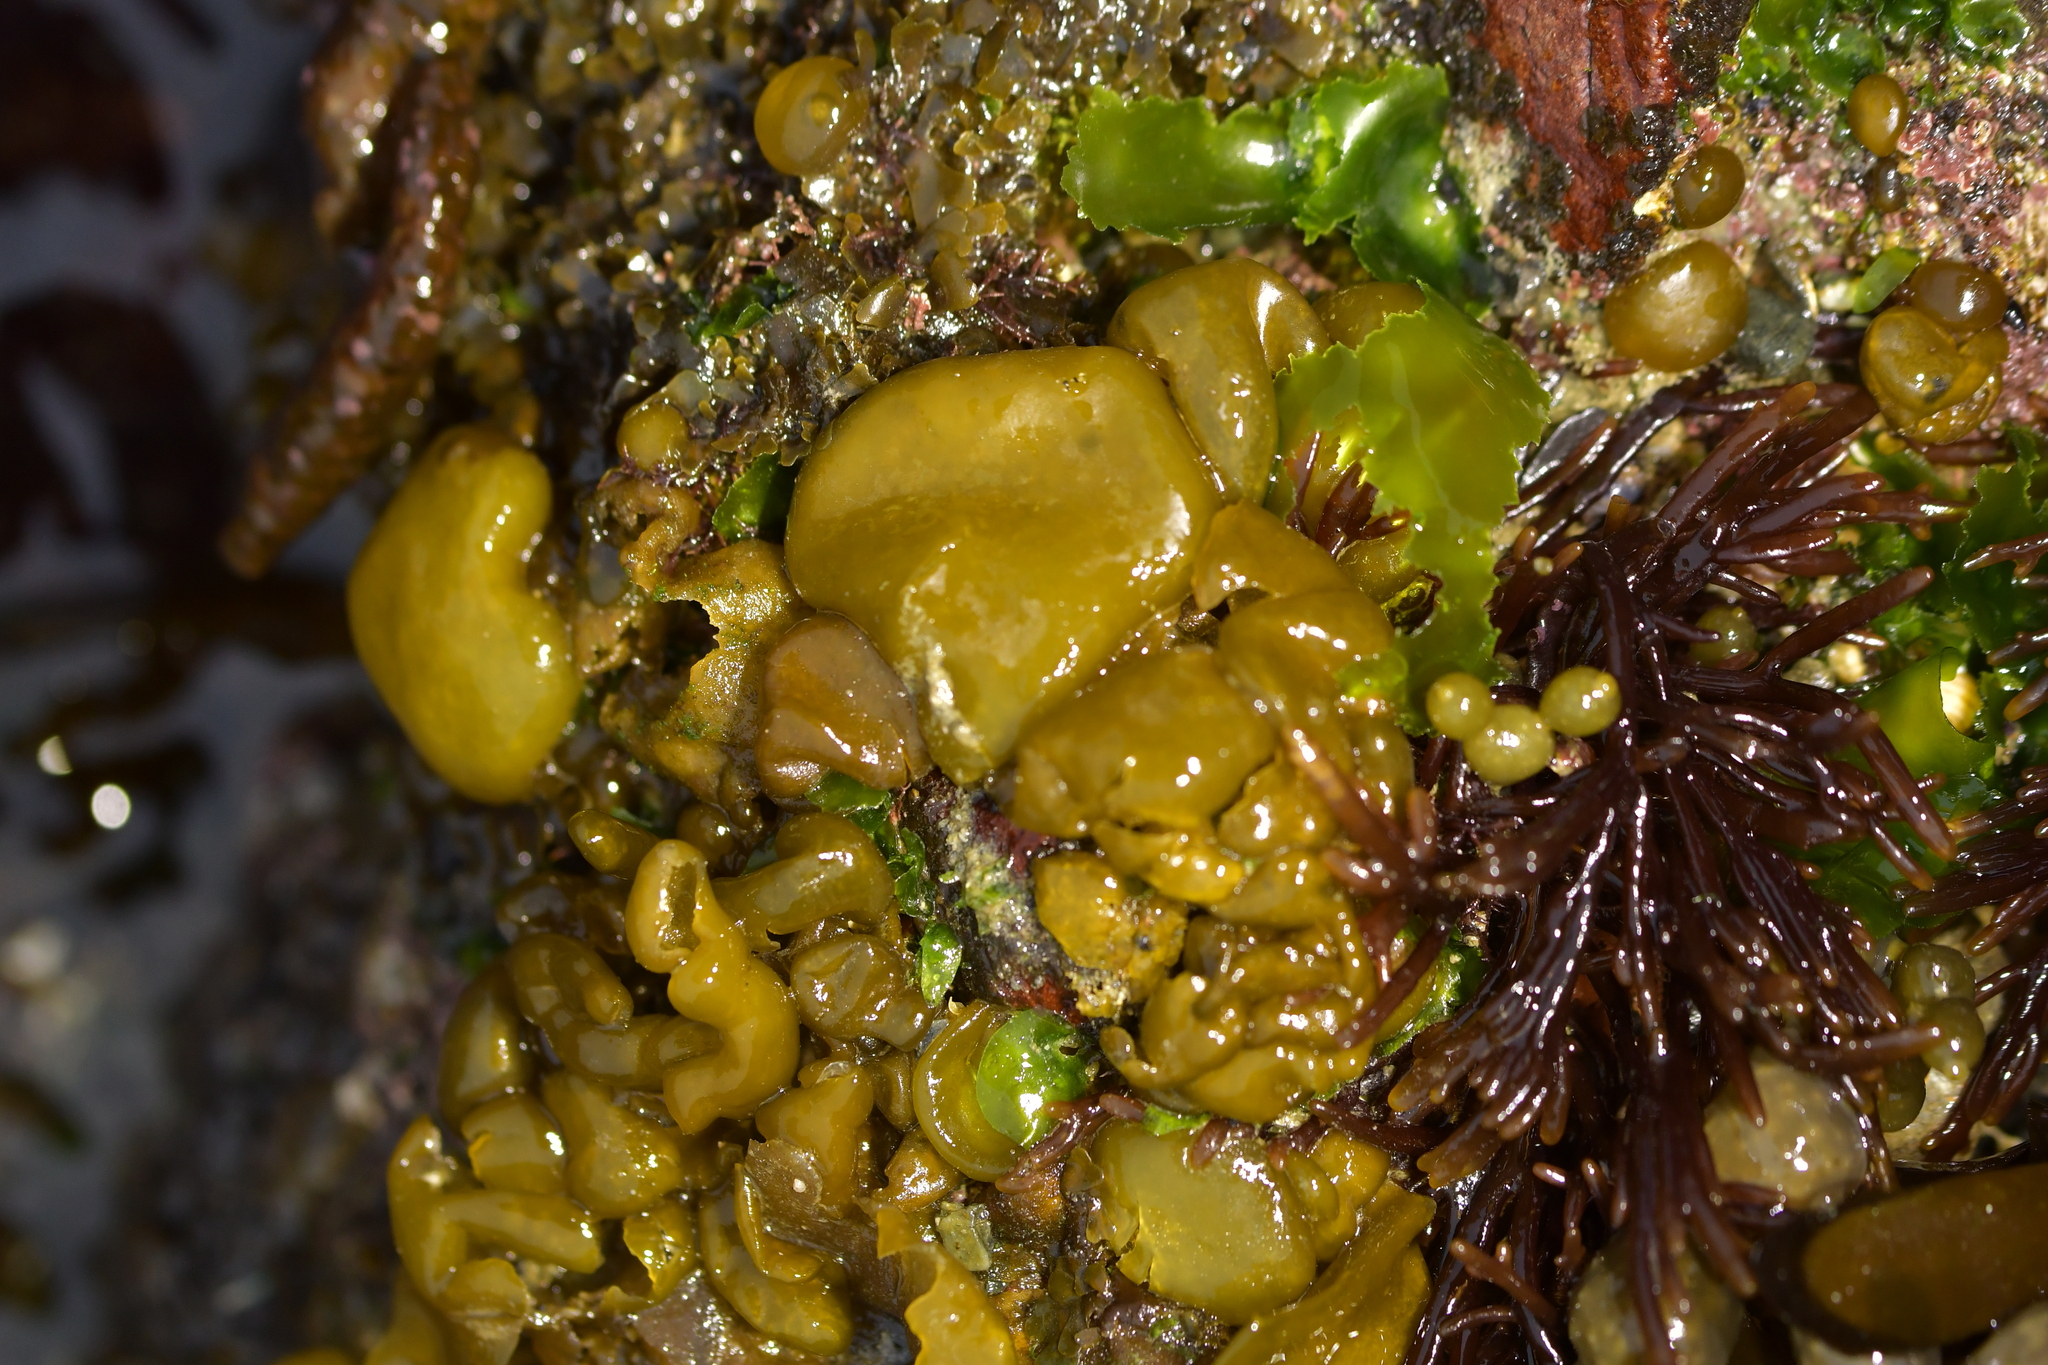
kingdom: Chromista
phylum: Ochrophyta
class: Phaeophyceae
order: Scytosiphonales
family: Scytosiphonaceae
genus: Colpomenia
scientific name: Colpomenia sinuosa
